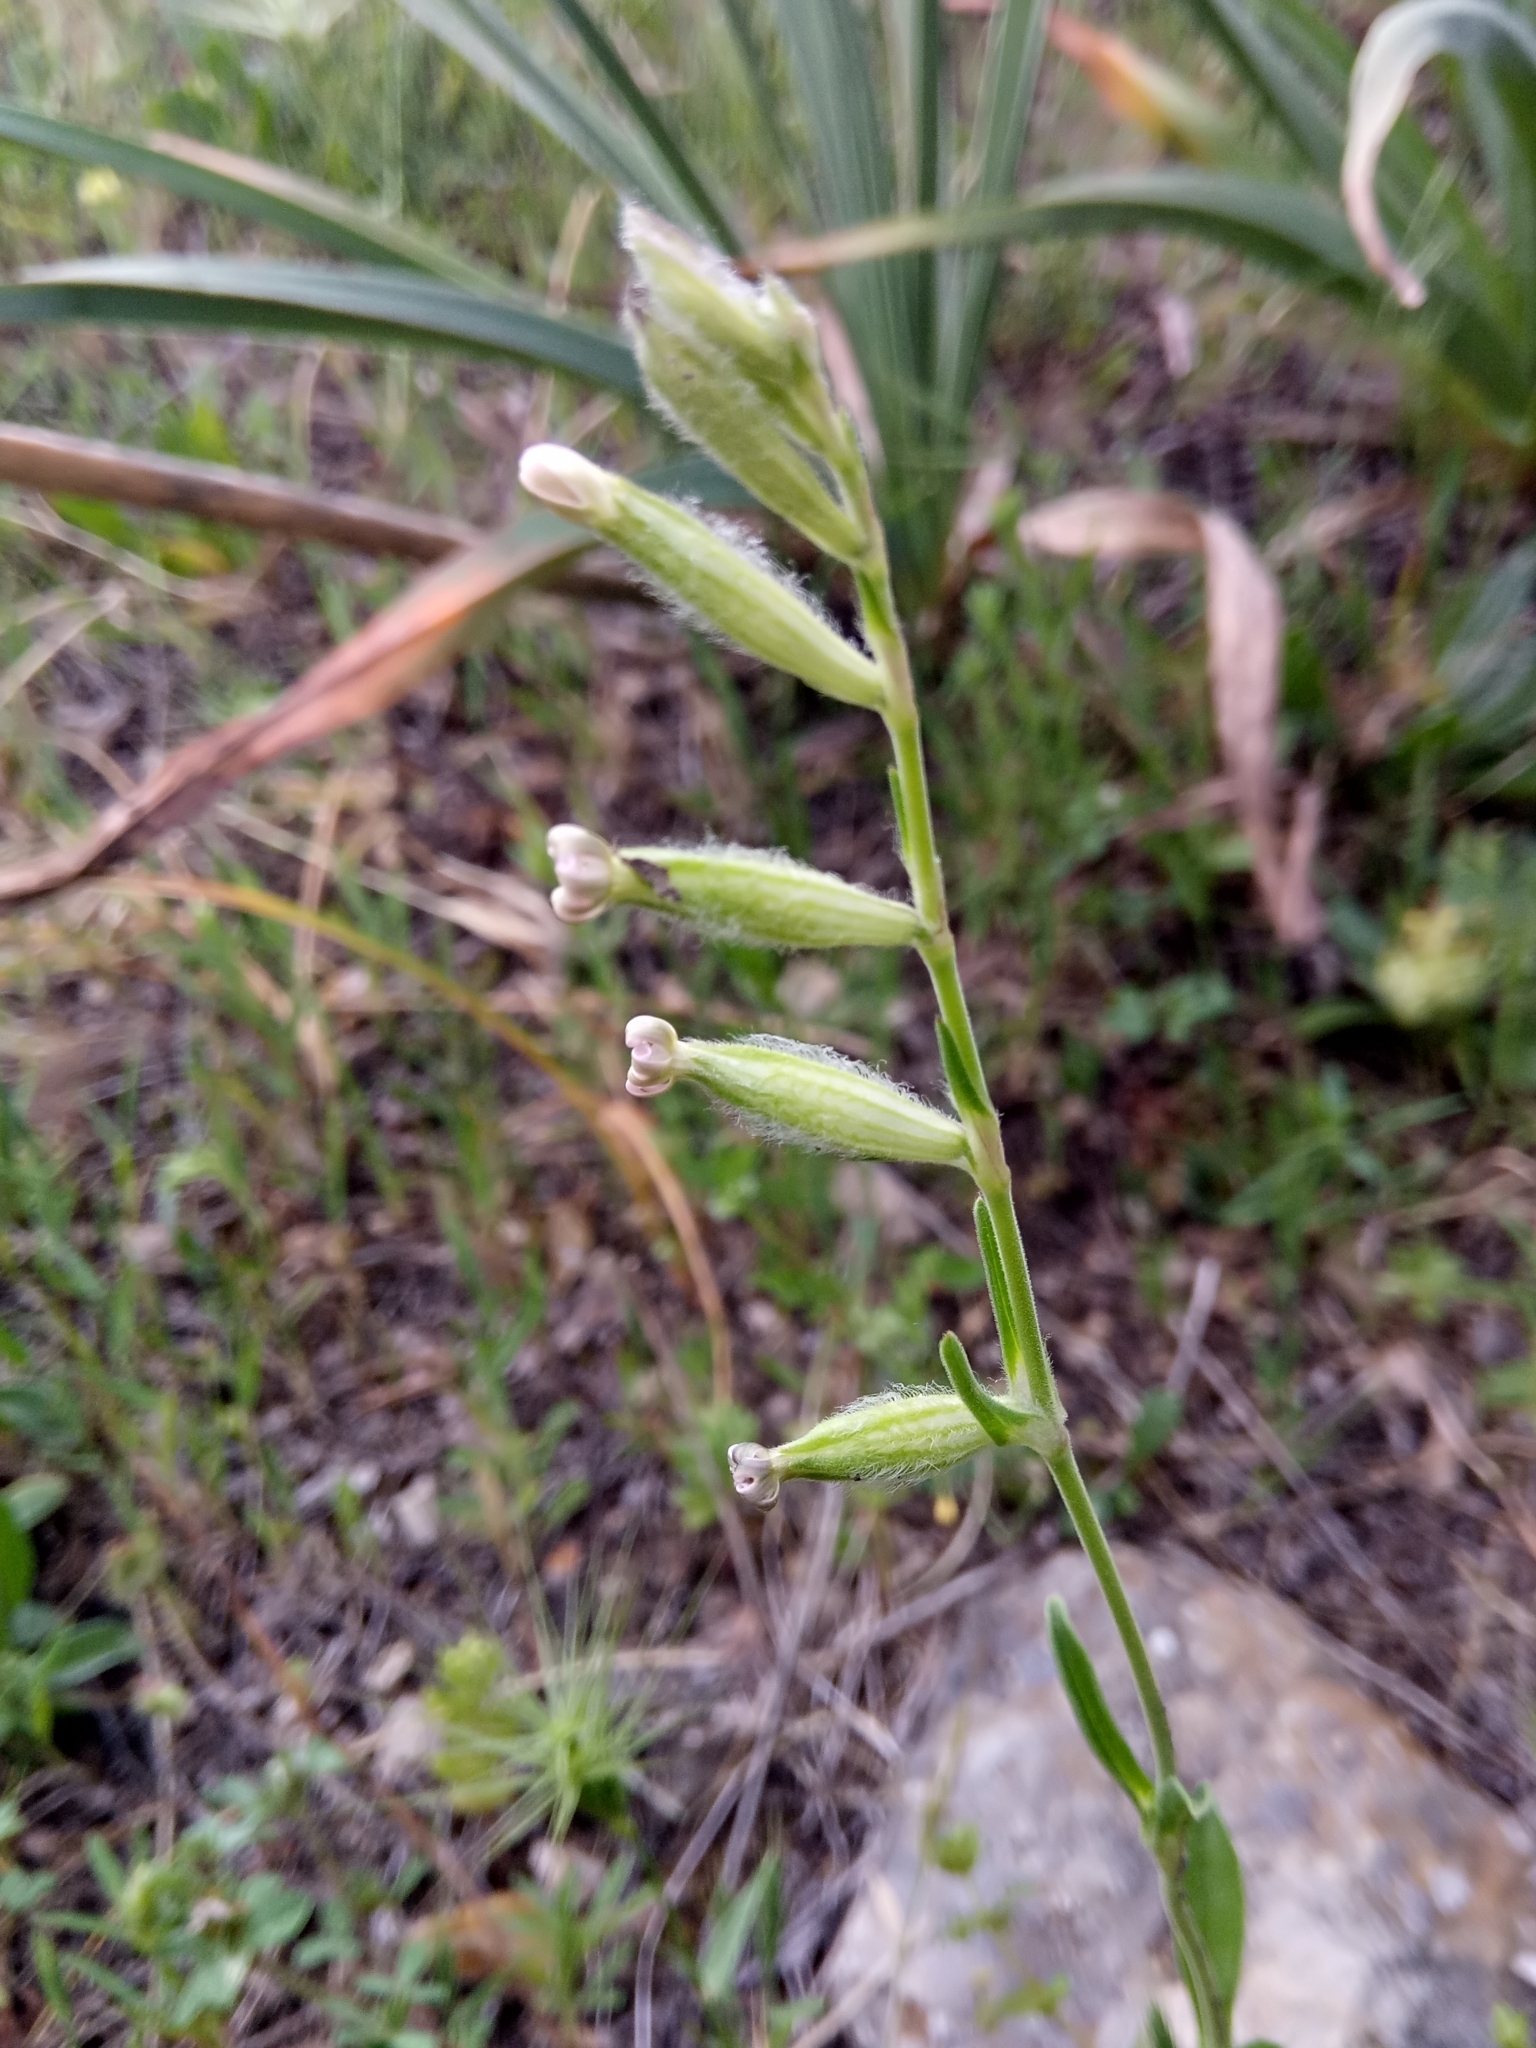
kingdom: Plantae
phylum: Tracheophyta
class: Magnoliopsida
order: Caryophyllales
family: Caryophyllaceae
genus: Silene
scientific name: Silene cirtensis
